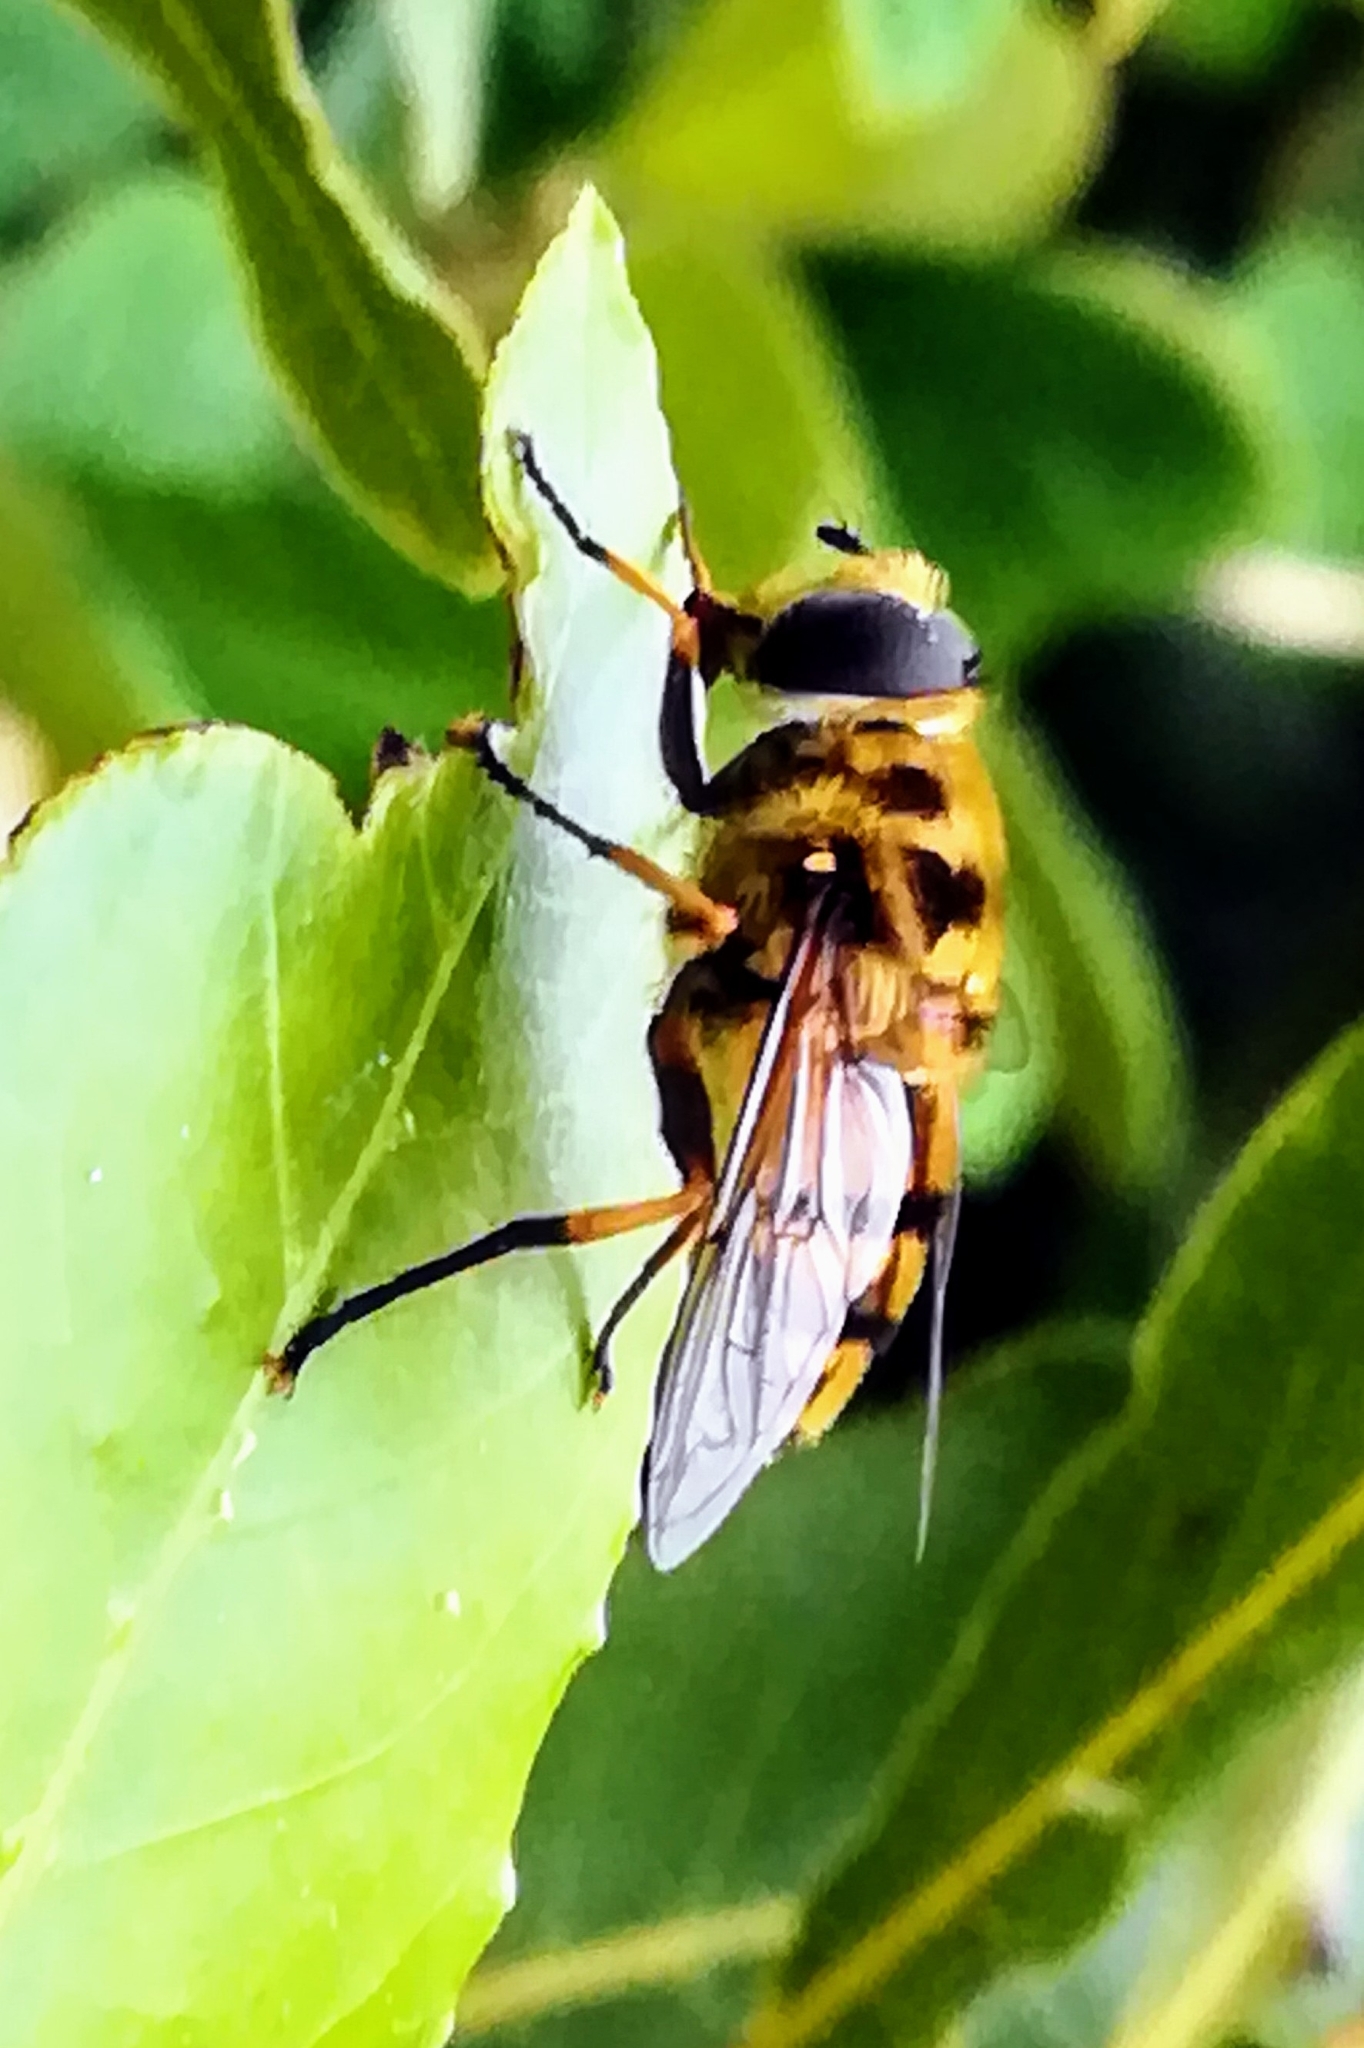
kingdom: Animalia
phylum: Arthropoda
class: Insecta
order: Diptera
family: Syrphidae
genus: Myathropa
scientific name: Myathropa florea
